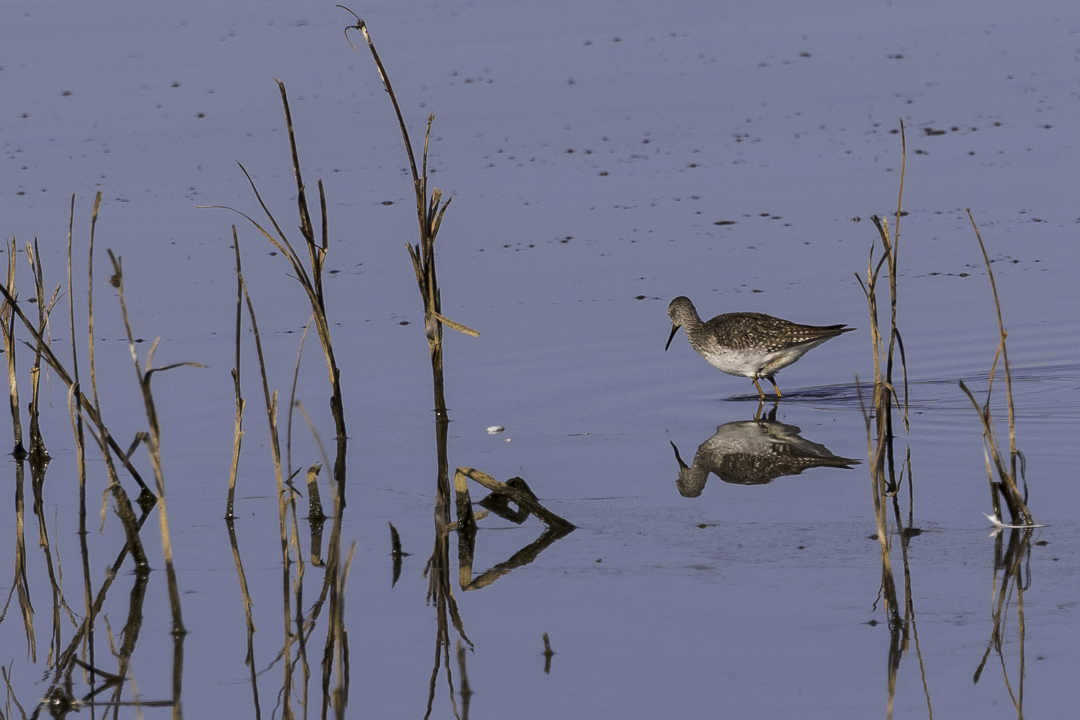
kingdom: Animalia
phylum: Chordata
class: Aves
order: Charadriiformes
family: Scolopacidae
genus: Tringa
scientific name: Tringa melanoleuca
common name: Greater yellowlegs
